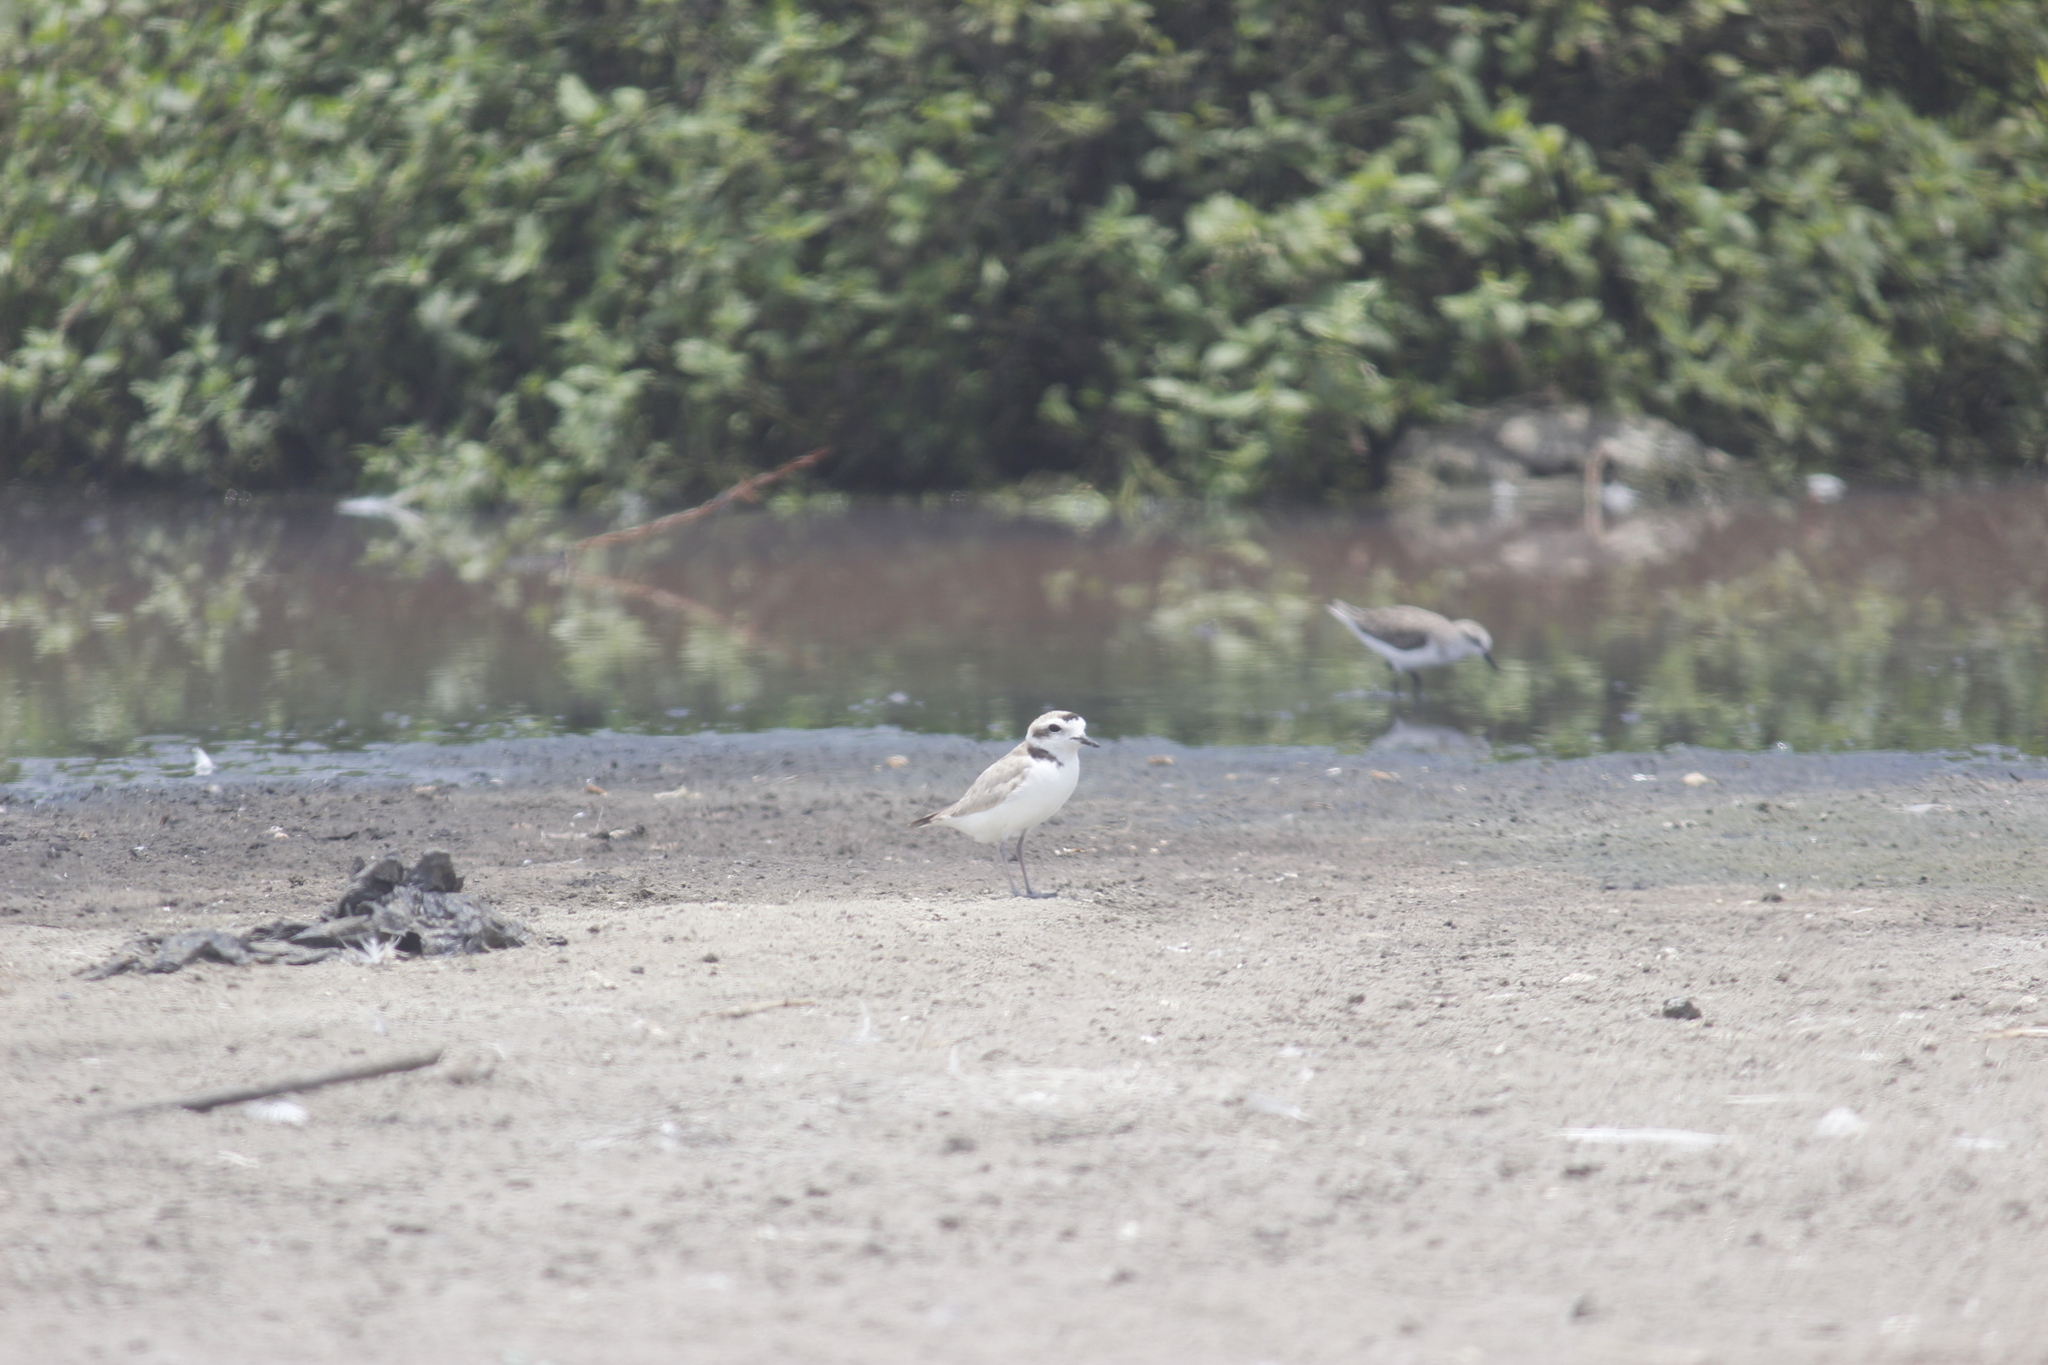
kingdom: Animalia
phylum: Chordata
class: Aves
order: Charadriiformes
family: Charadriidae
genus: Anarhynchus
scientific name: Anarhynchus
